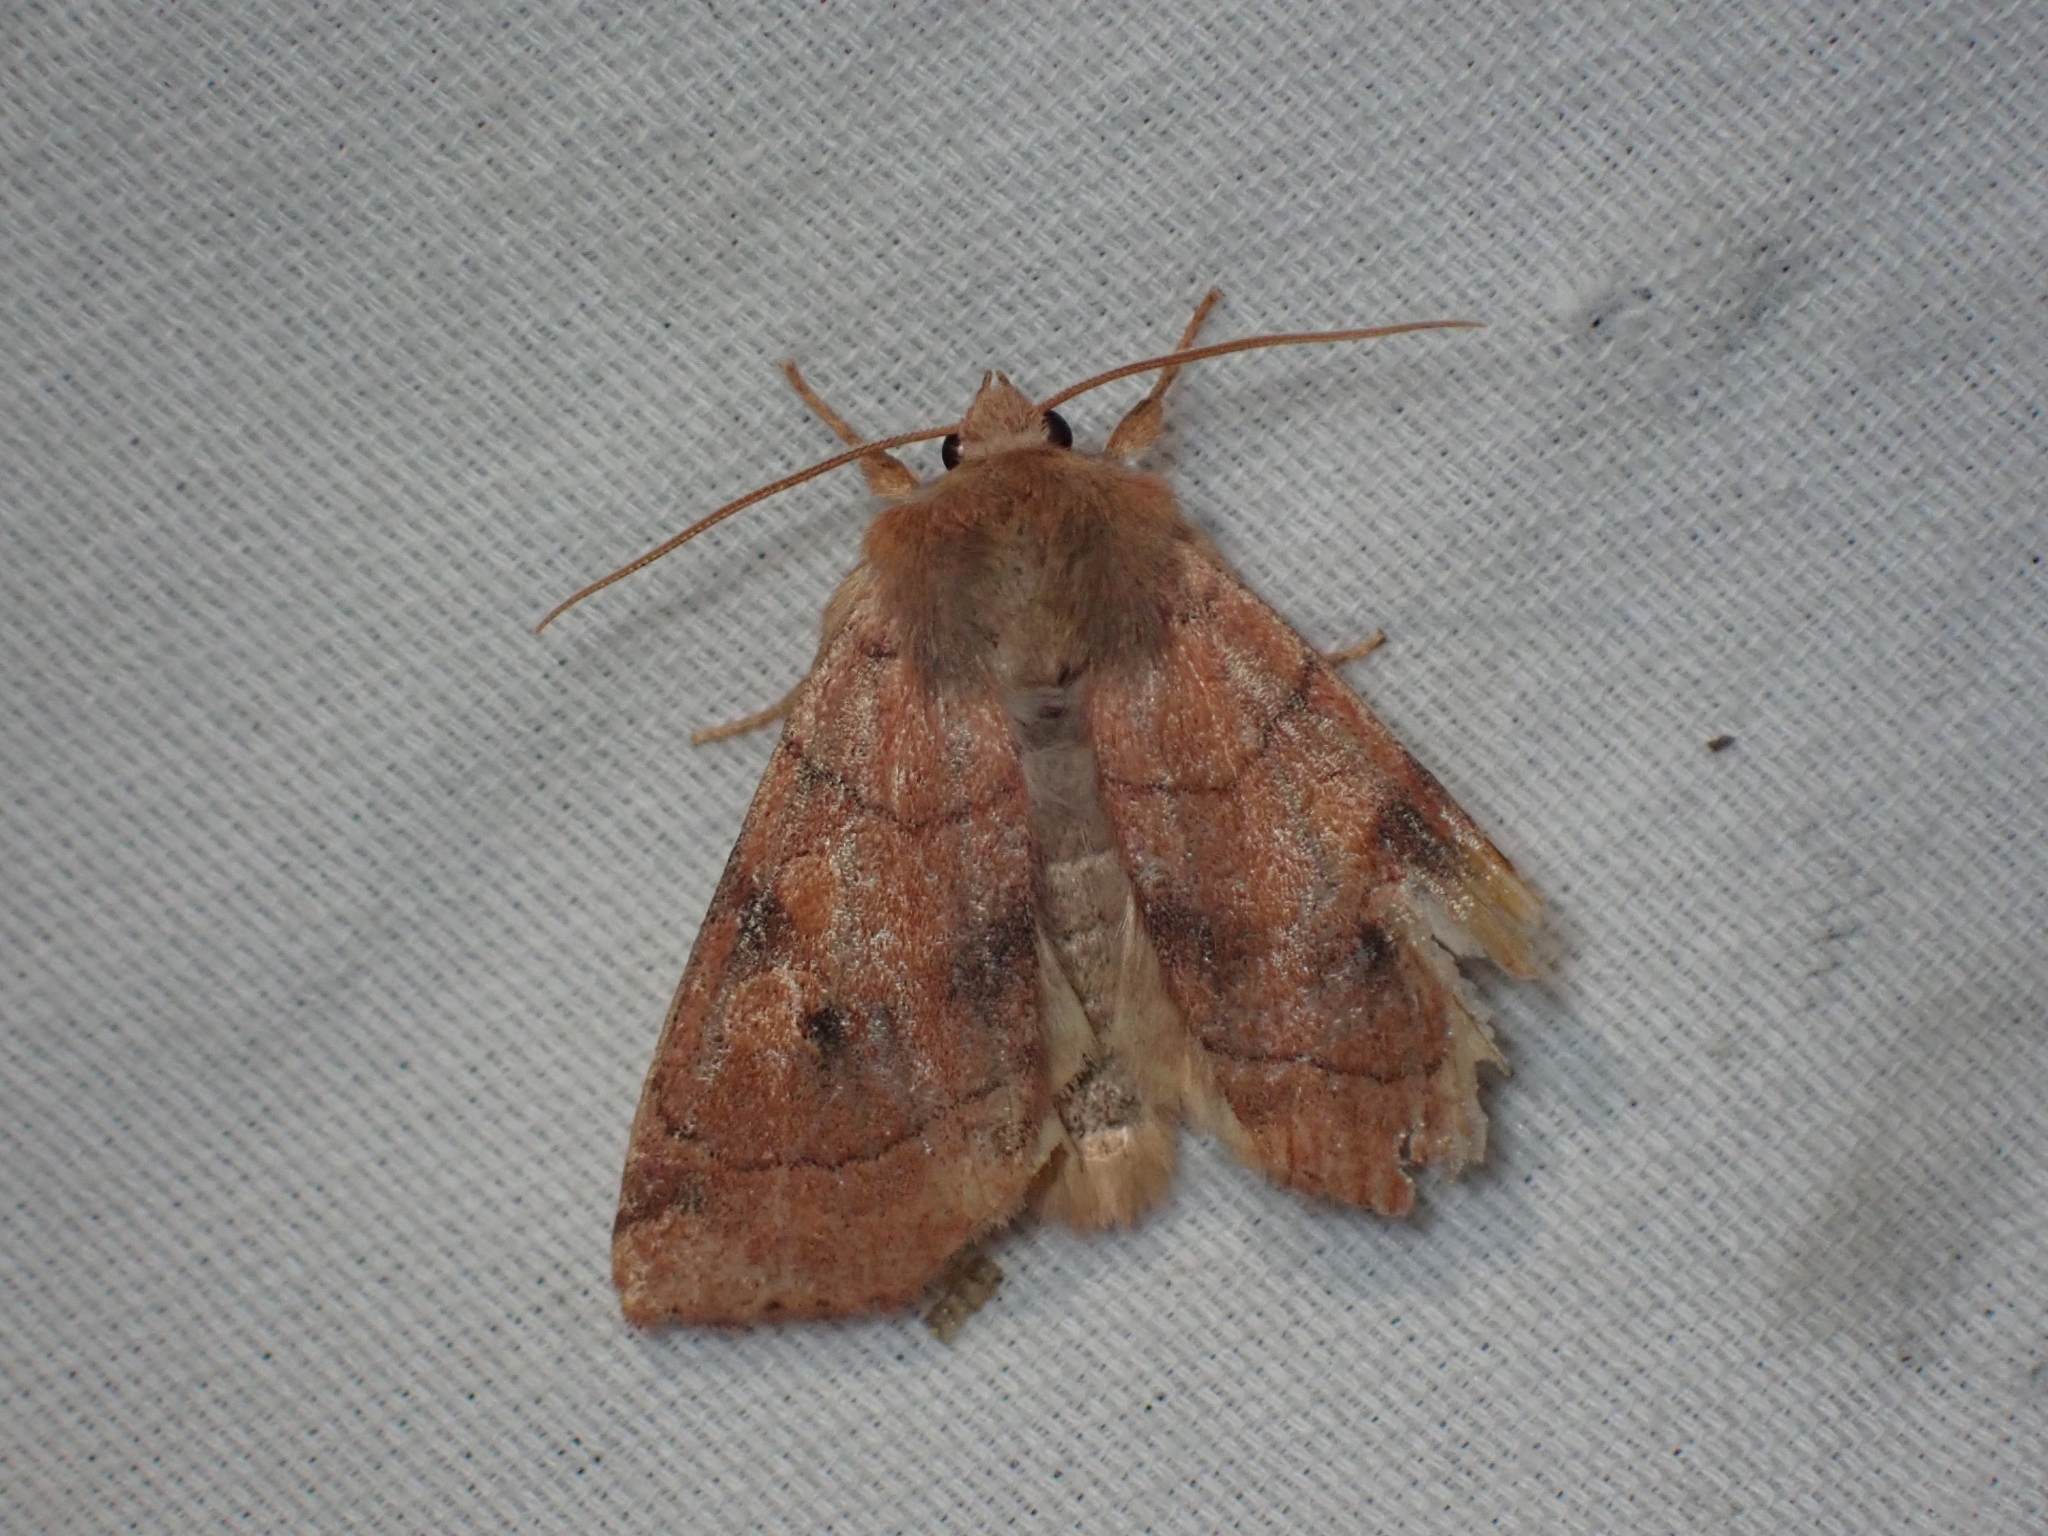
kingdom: Animalia
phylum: Arthropoda
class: Insecta
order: Lepidoptera
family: Noctuidae
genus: Enargia
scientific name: Enargia infumata
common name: Smoked sallow
